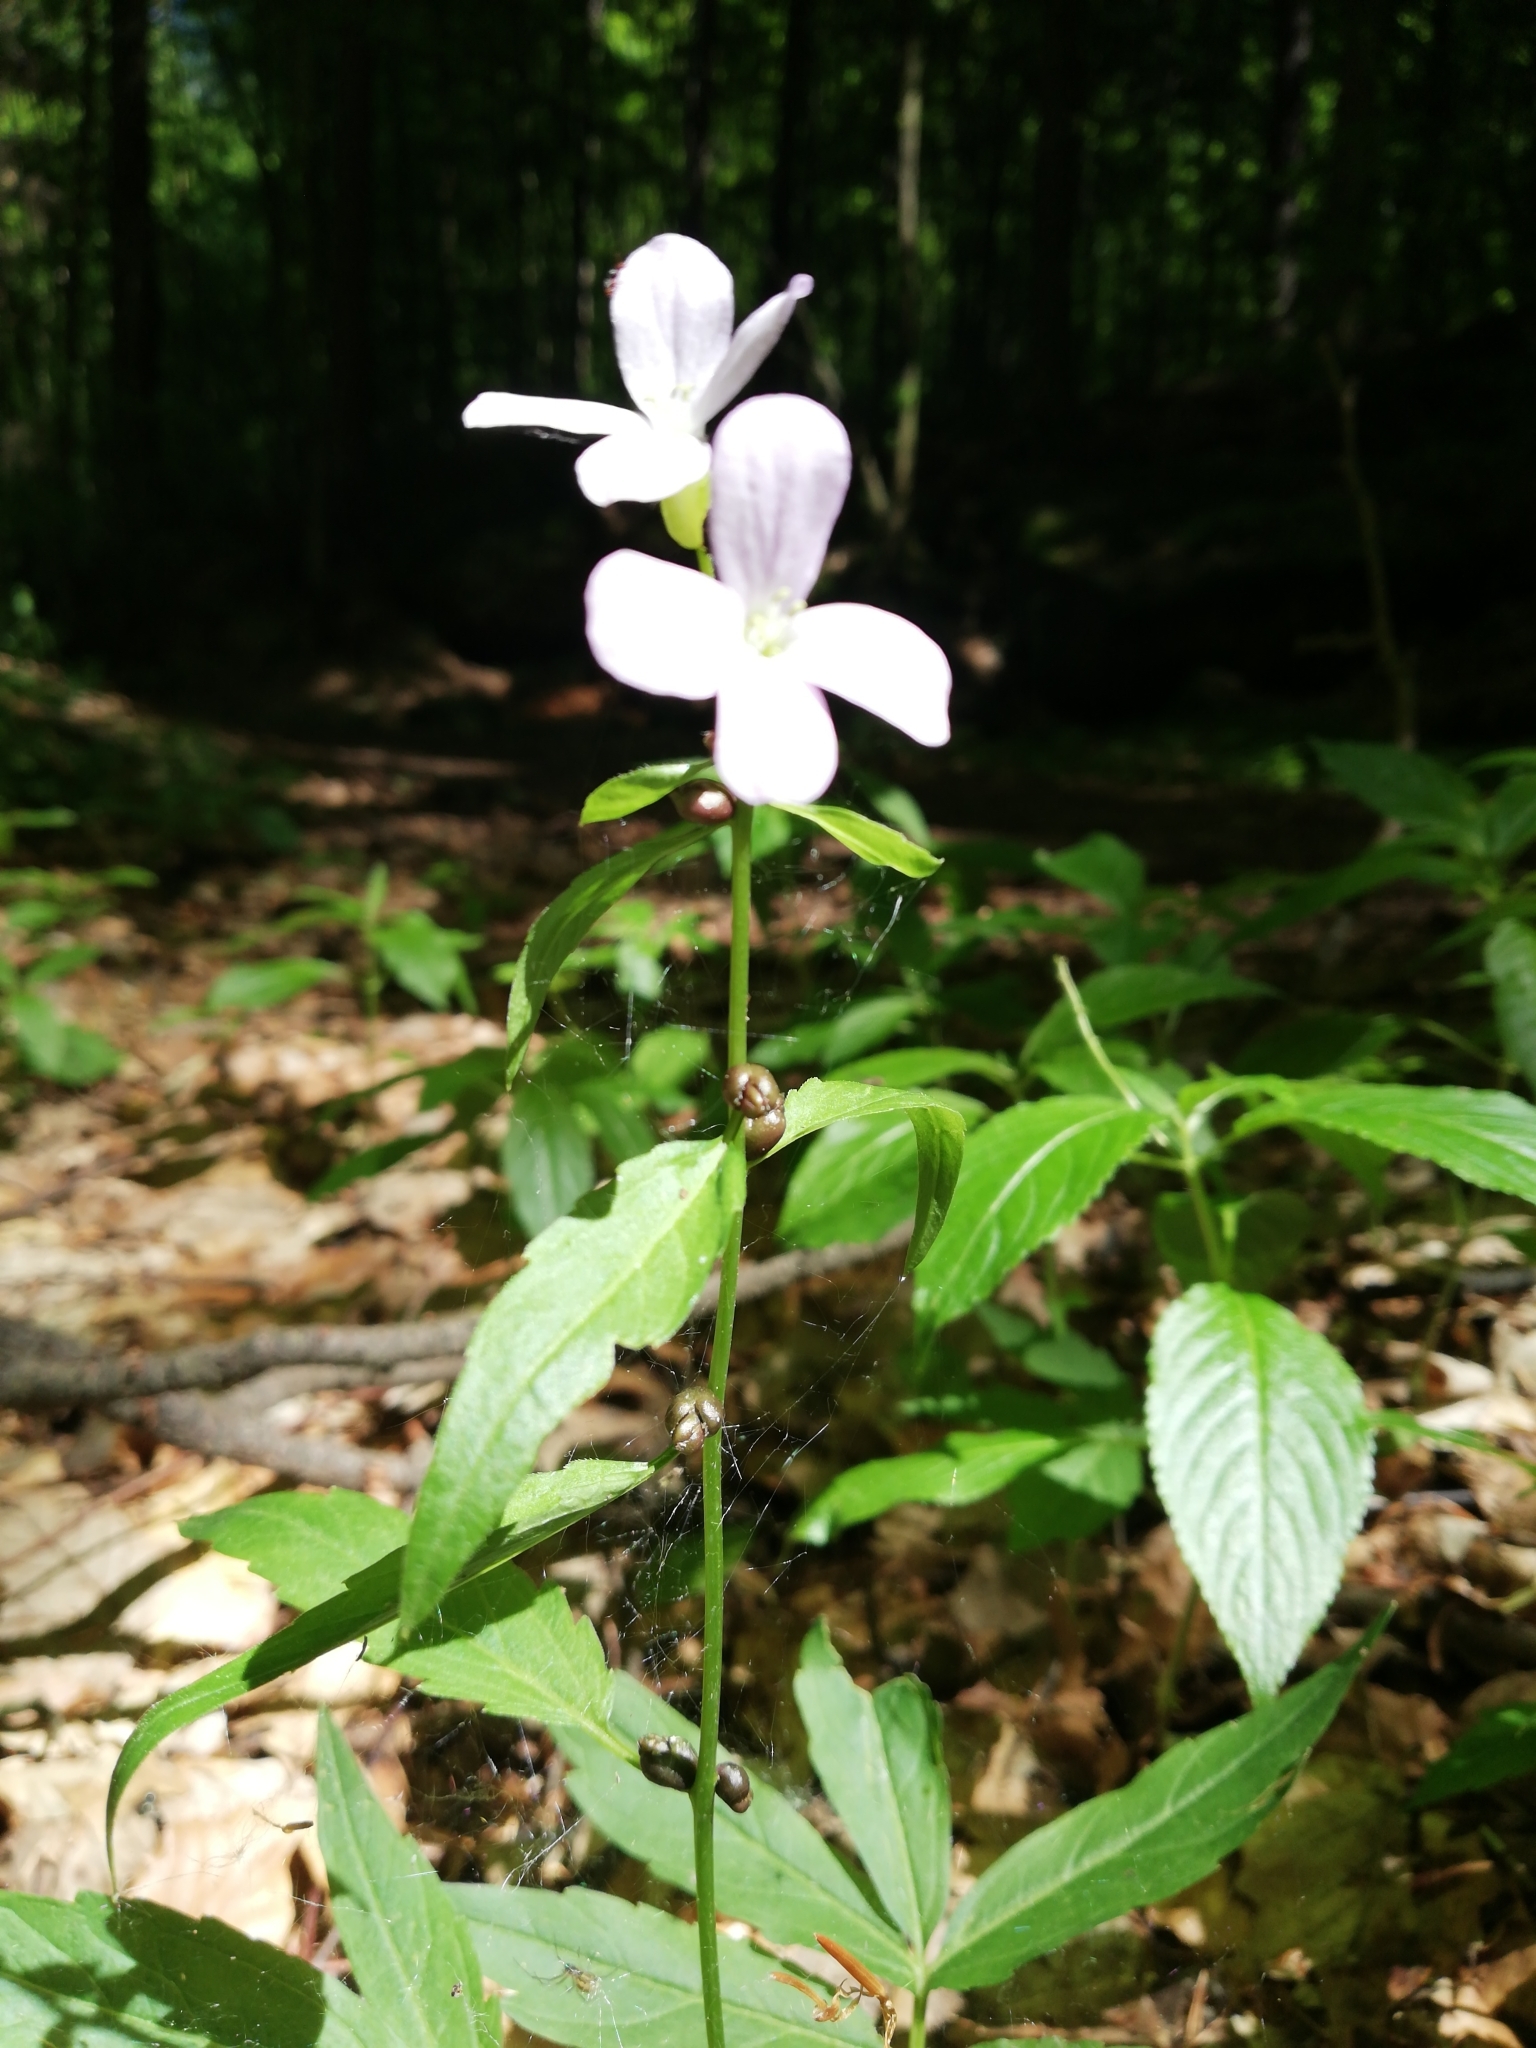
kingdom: Plantae
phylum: Tracheophyta
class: Magnoliopsida
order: Brassicales
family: Brassicaceae
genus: Cardamine
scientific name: Cardamine bulbifera
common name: Coralroot bittercress
